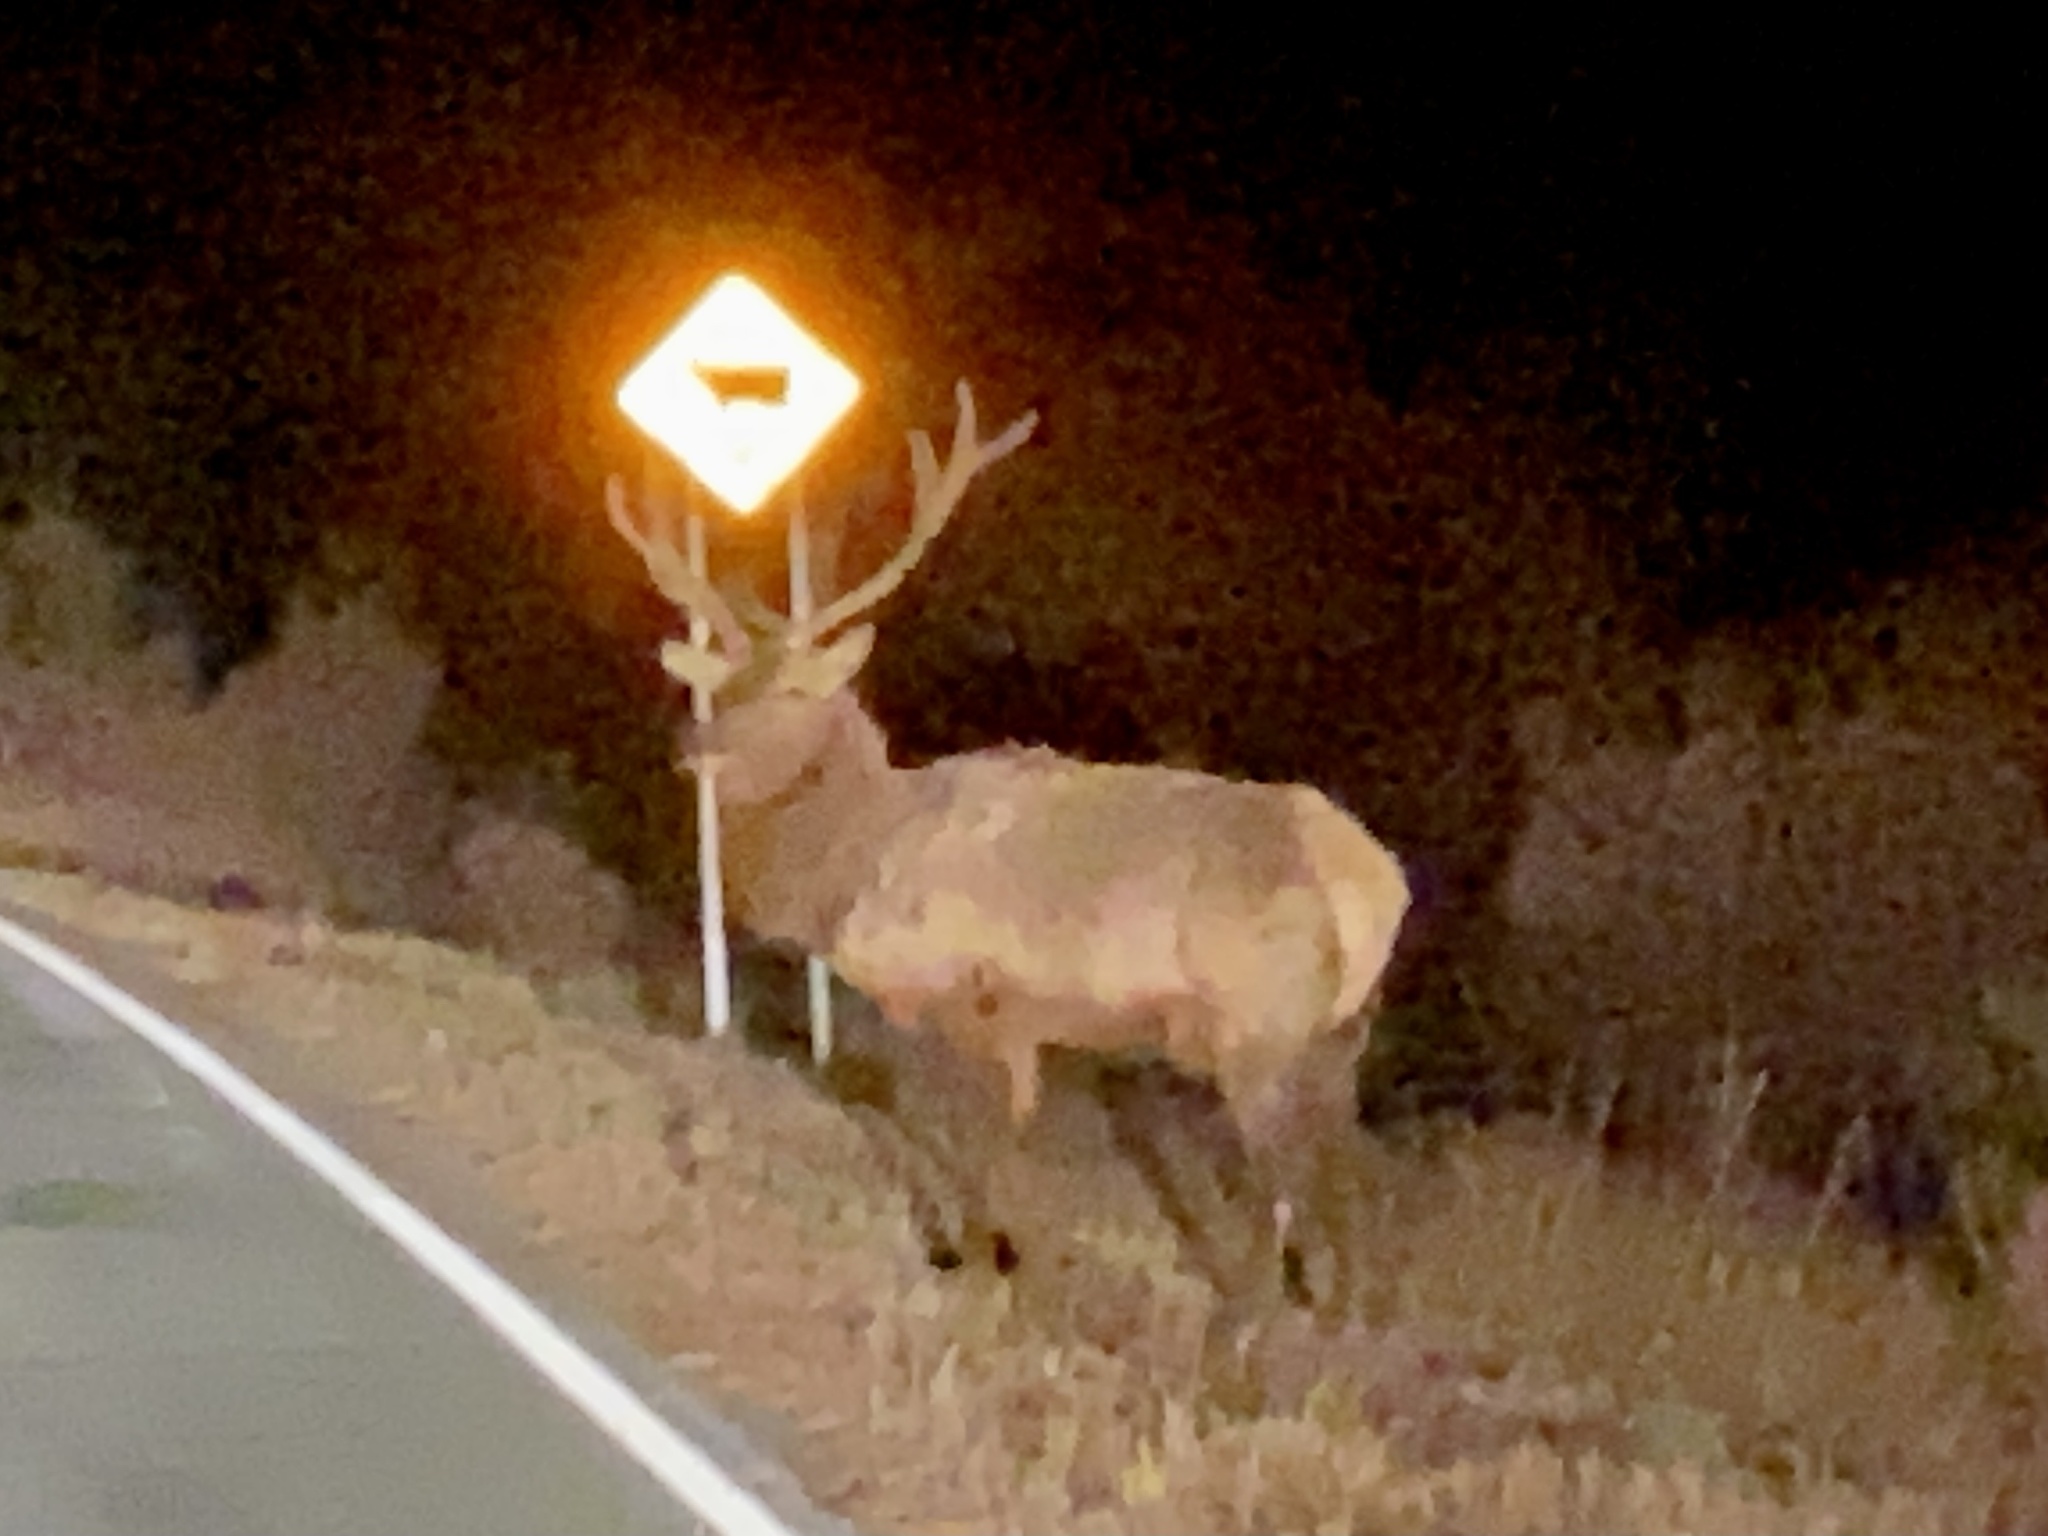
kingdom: Animalia
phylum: Chordata
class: Mammalia
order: Artiodactyla
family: Cervidae
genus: Cervus
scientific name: Cervus elaphus
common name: Red deer
